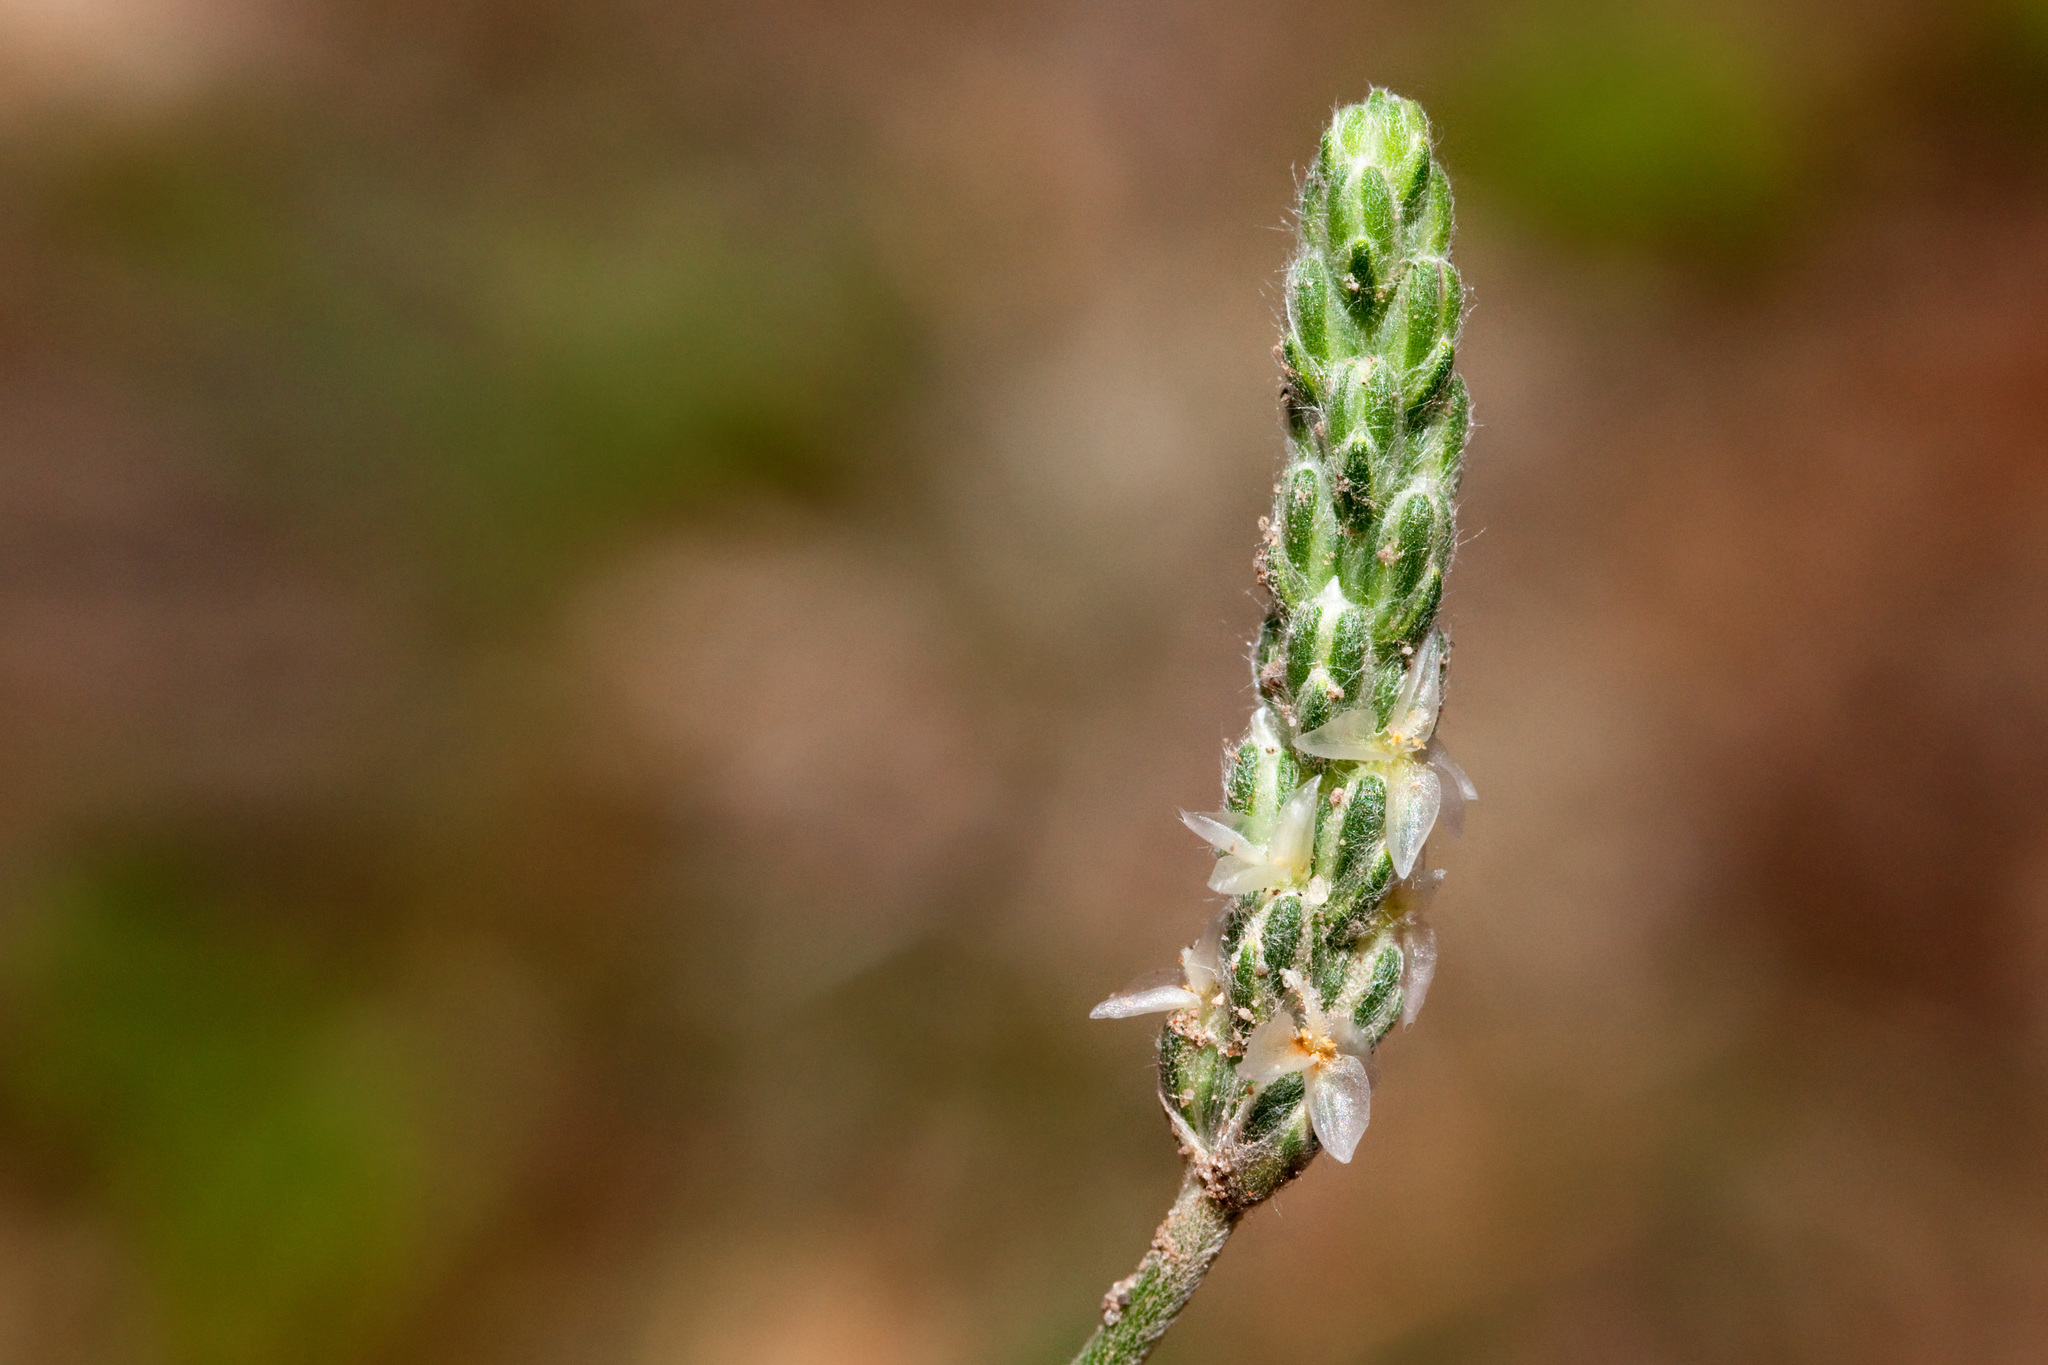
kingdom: Plantae
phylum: Tracheophyta
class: Magnoliopsida
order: Lamiales
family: Plantaginaceae
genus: Plantago
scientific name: Plantago argyrea
